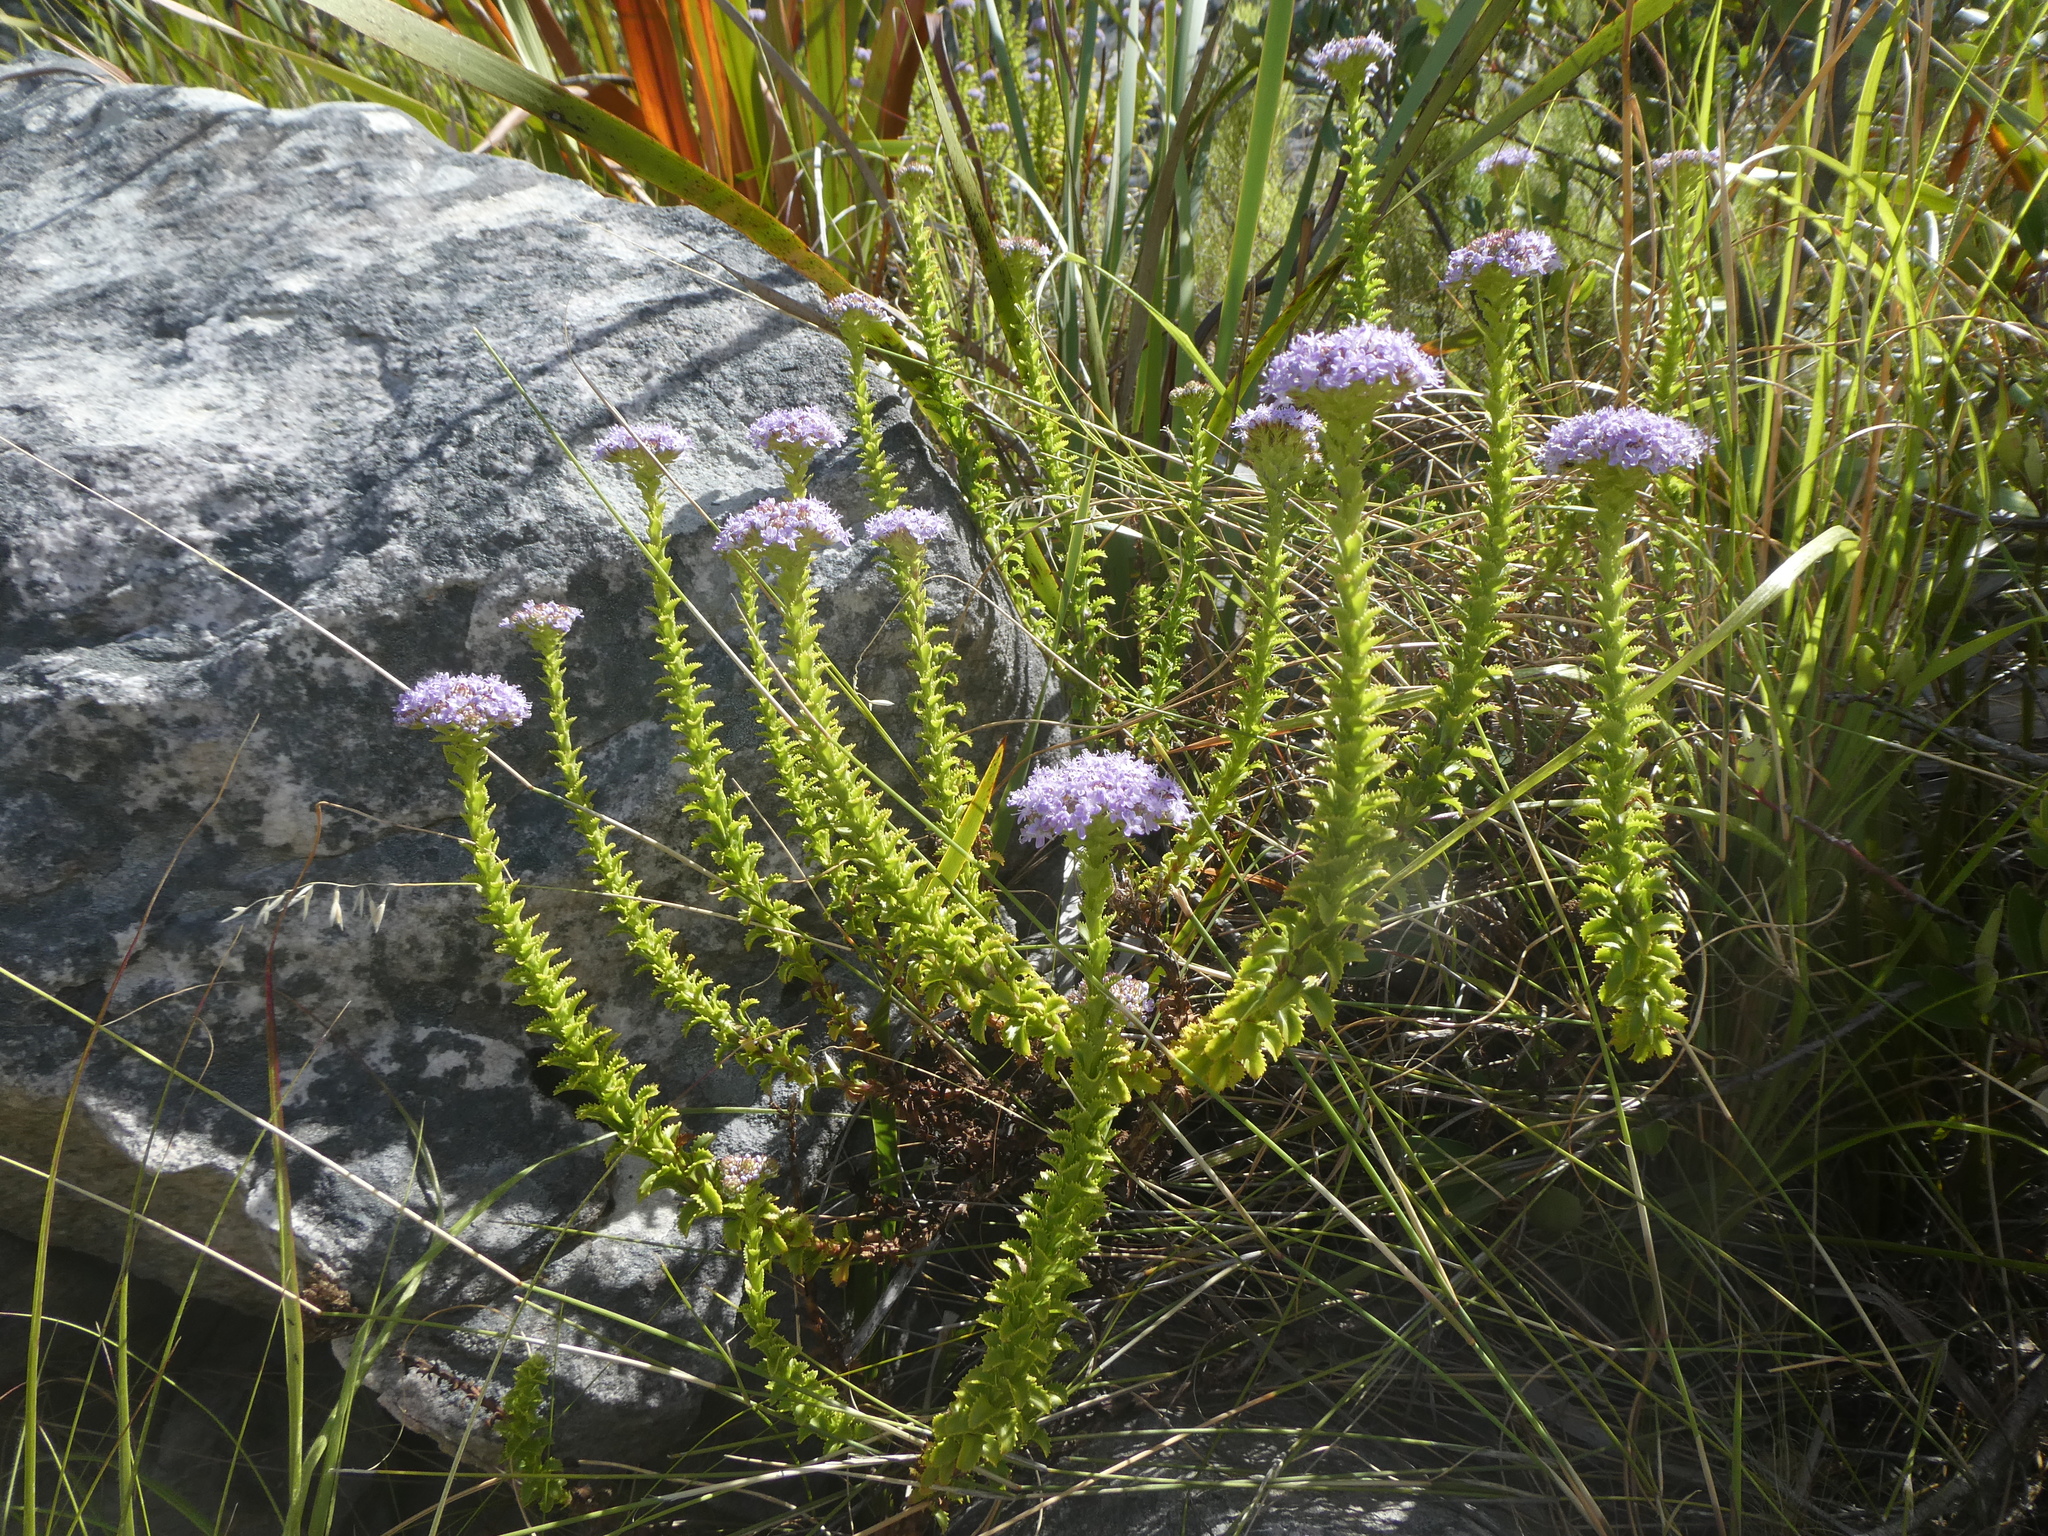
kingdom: Plantae
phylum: Tracheophyta
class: Magnoliopsida
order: Lamiales
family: Scrophulariaceae
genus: Pseudoselago
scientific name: Pseudoselago serrata
